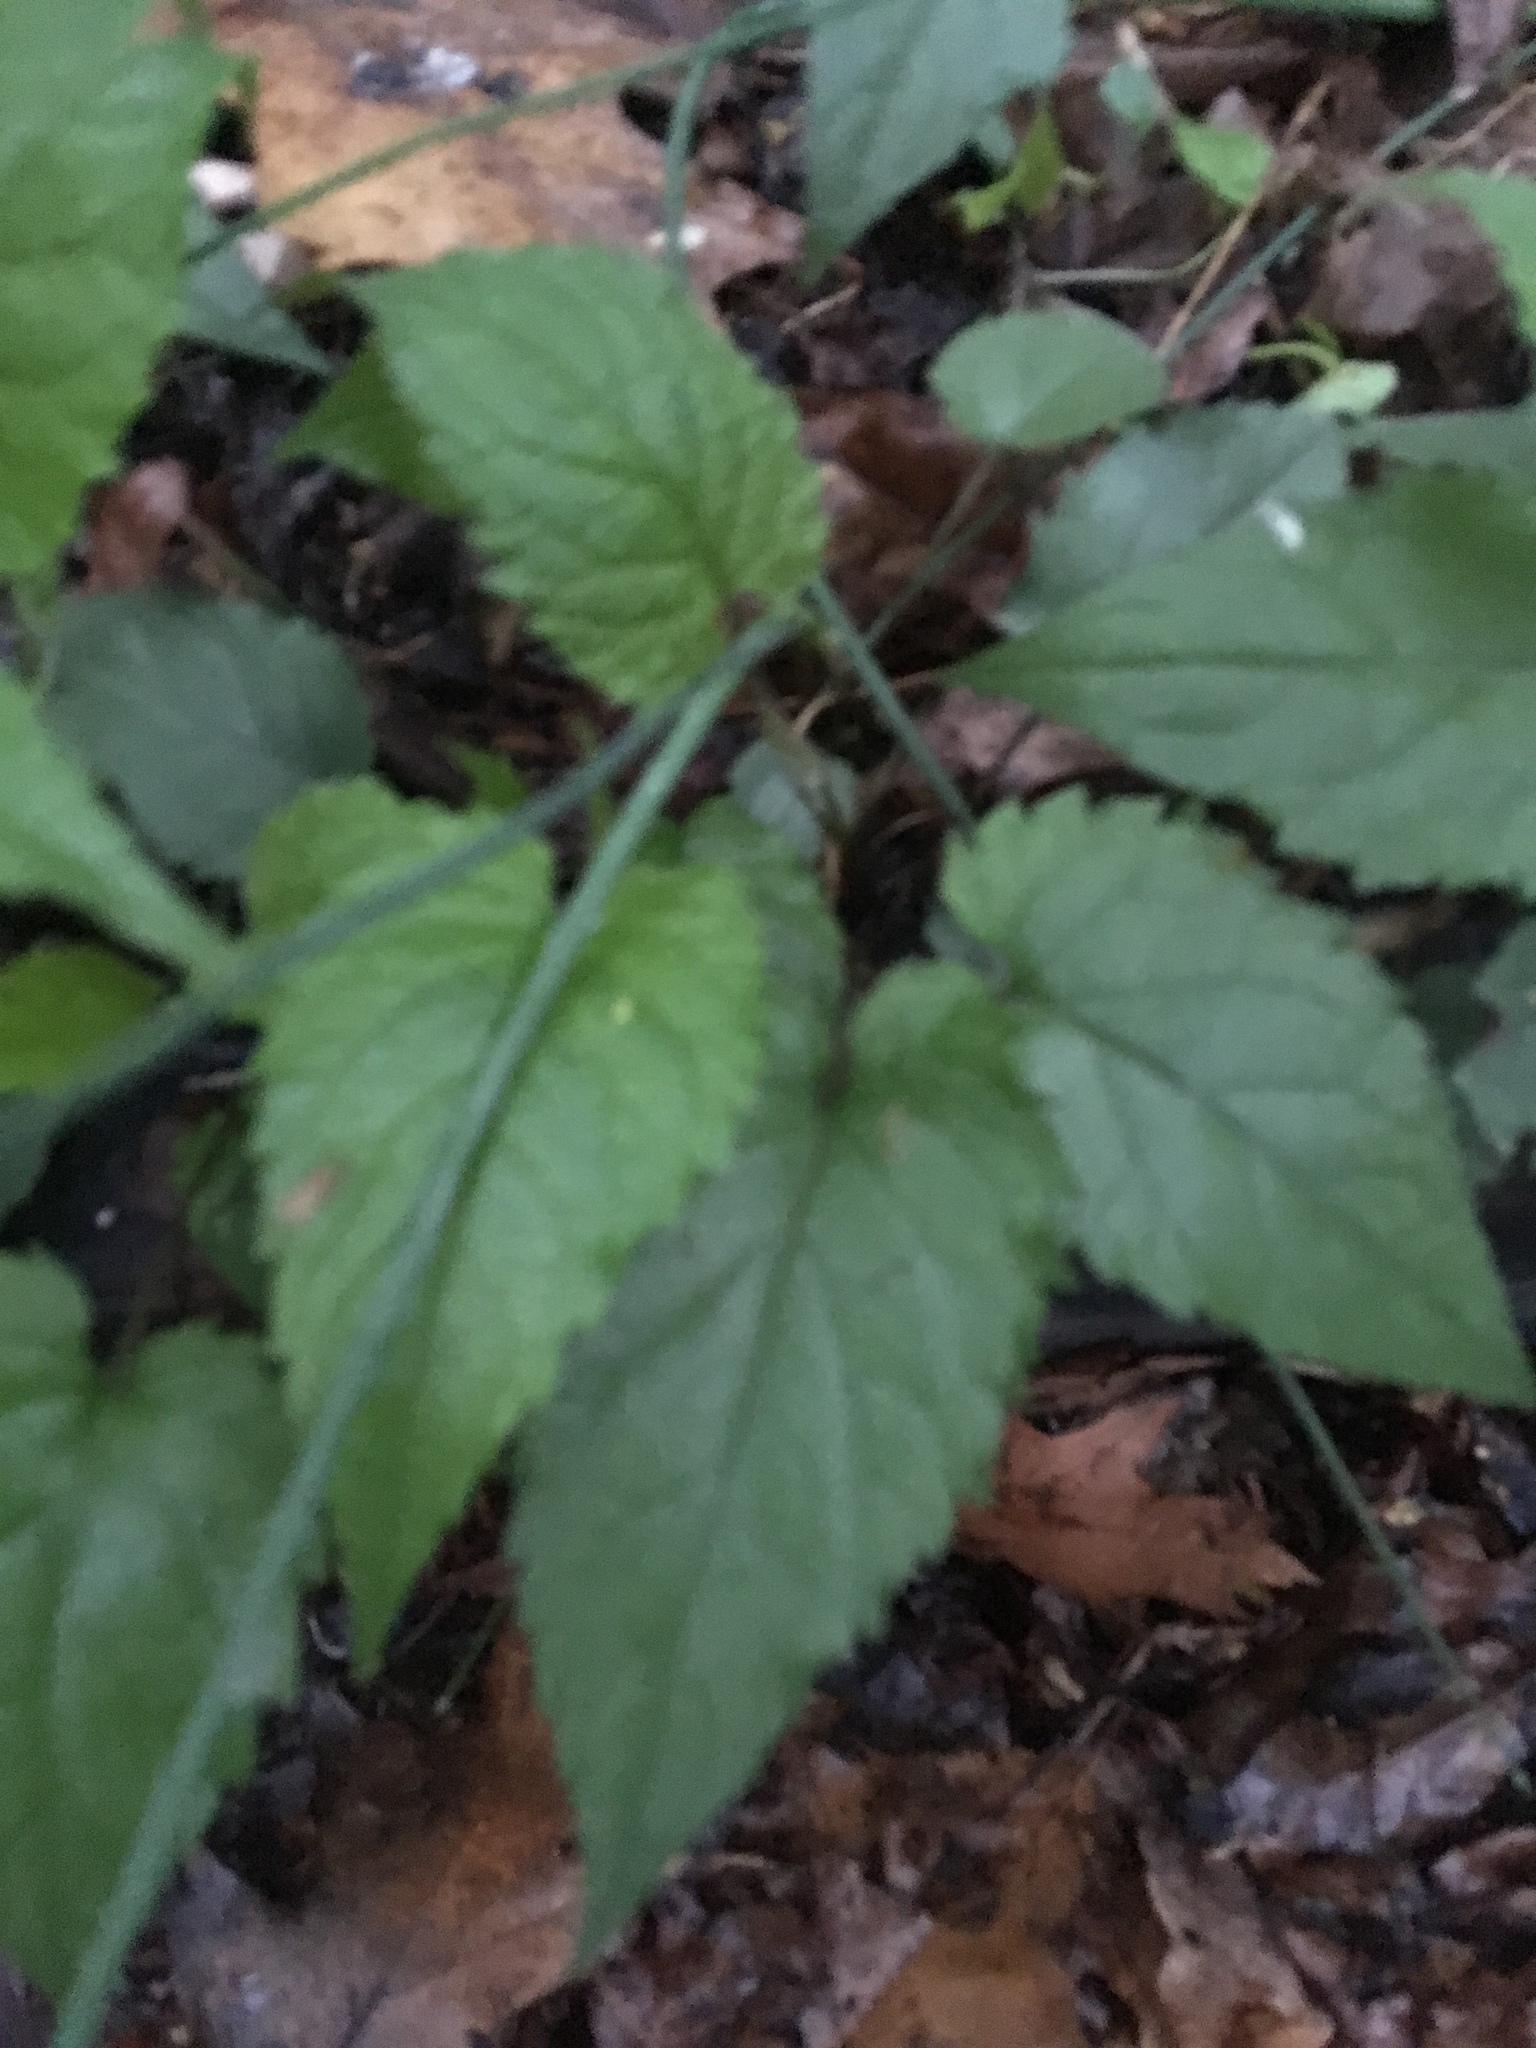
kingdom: Plantae
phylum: Tracheophyta
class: Magnoliopsida
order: Asterales
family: Asteraceae
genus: Eurybia
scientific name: Eurybia divaricata
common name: White wood aster
